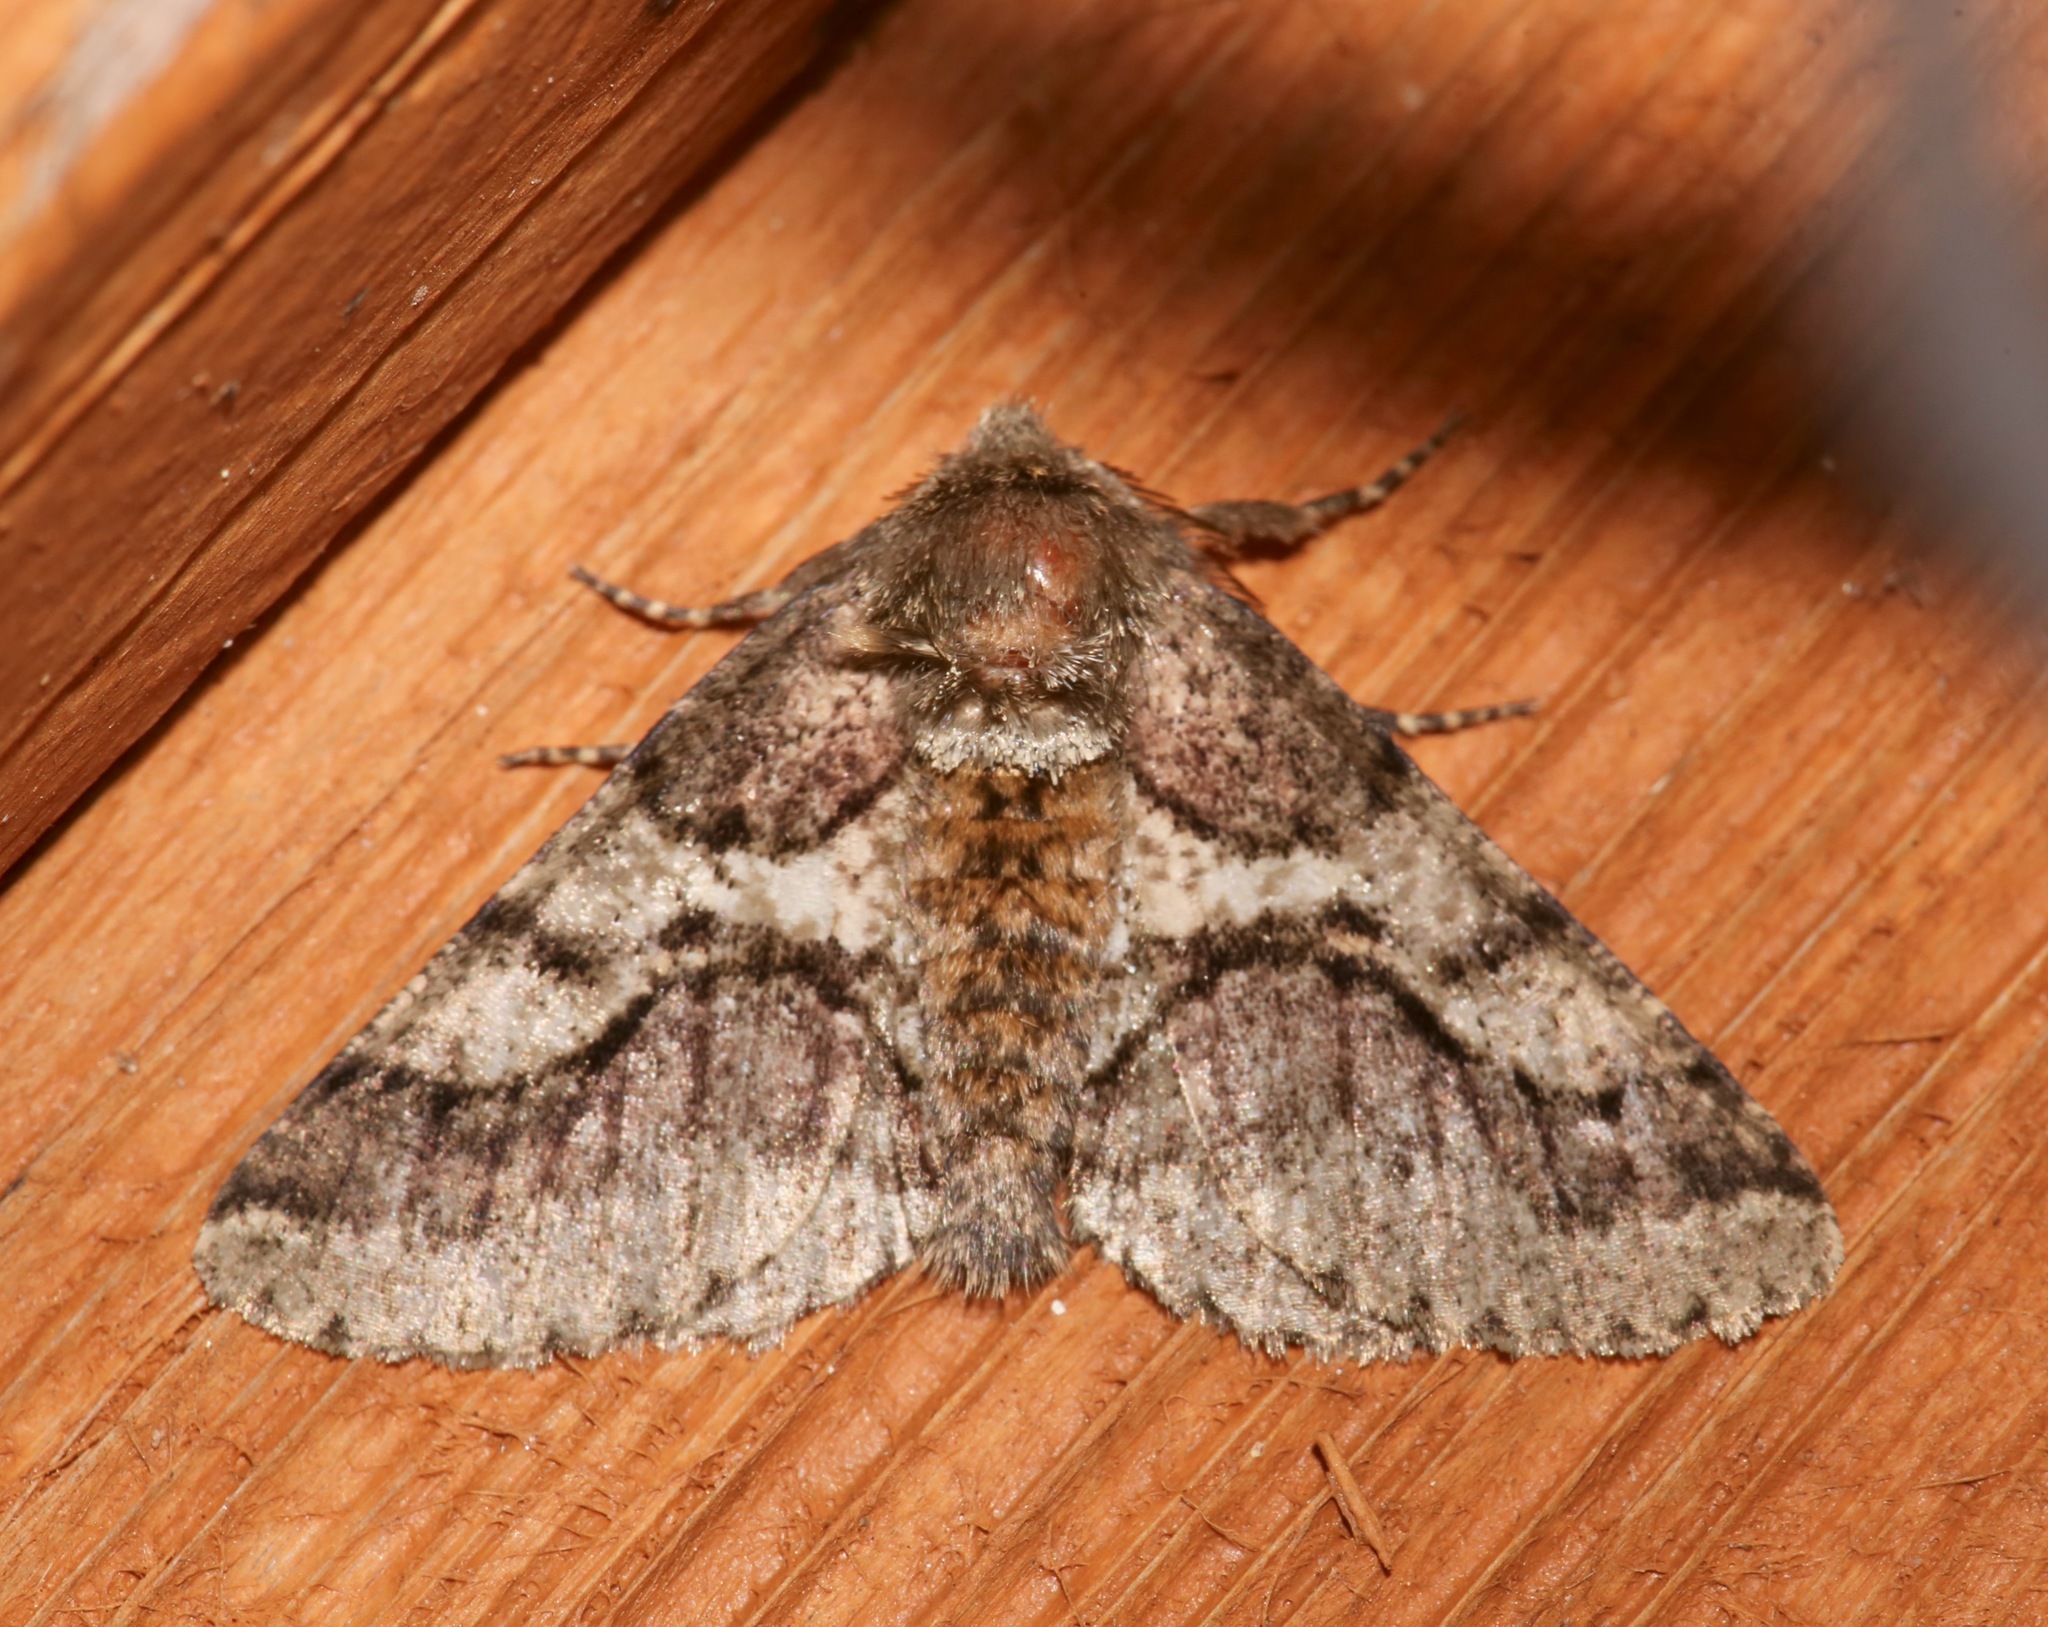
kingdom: Animalia
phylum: Arthropoda
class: Insecta
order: Lepidoptera
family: Geometridae
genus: Lycia
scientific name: Lycia ypsilon
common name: Wooly gray
